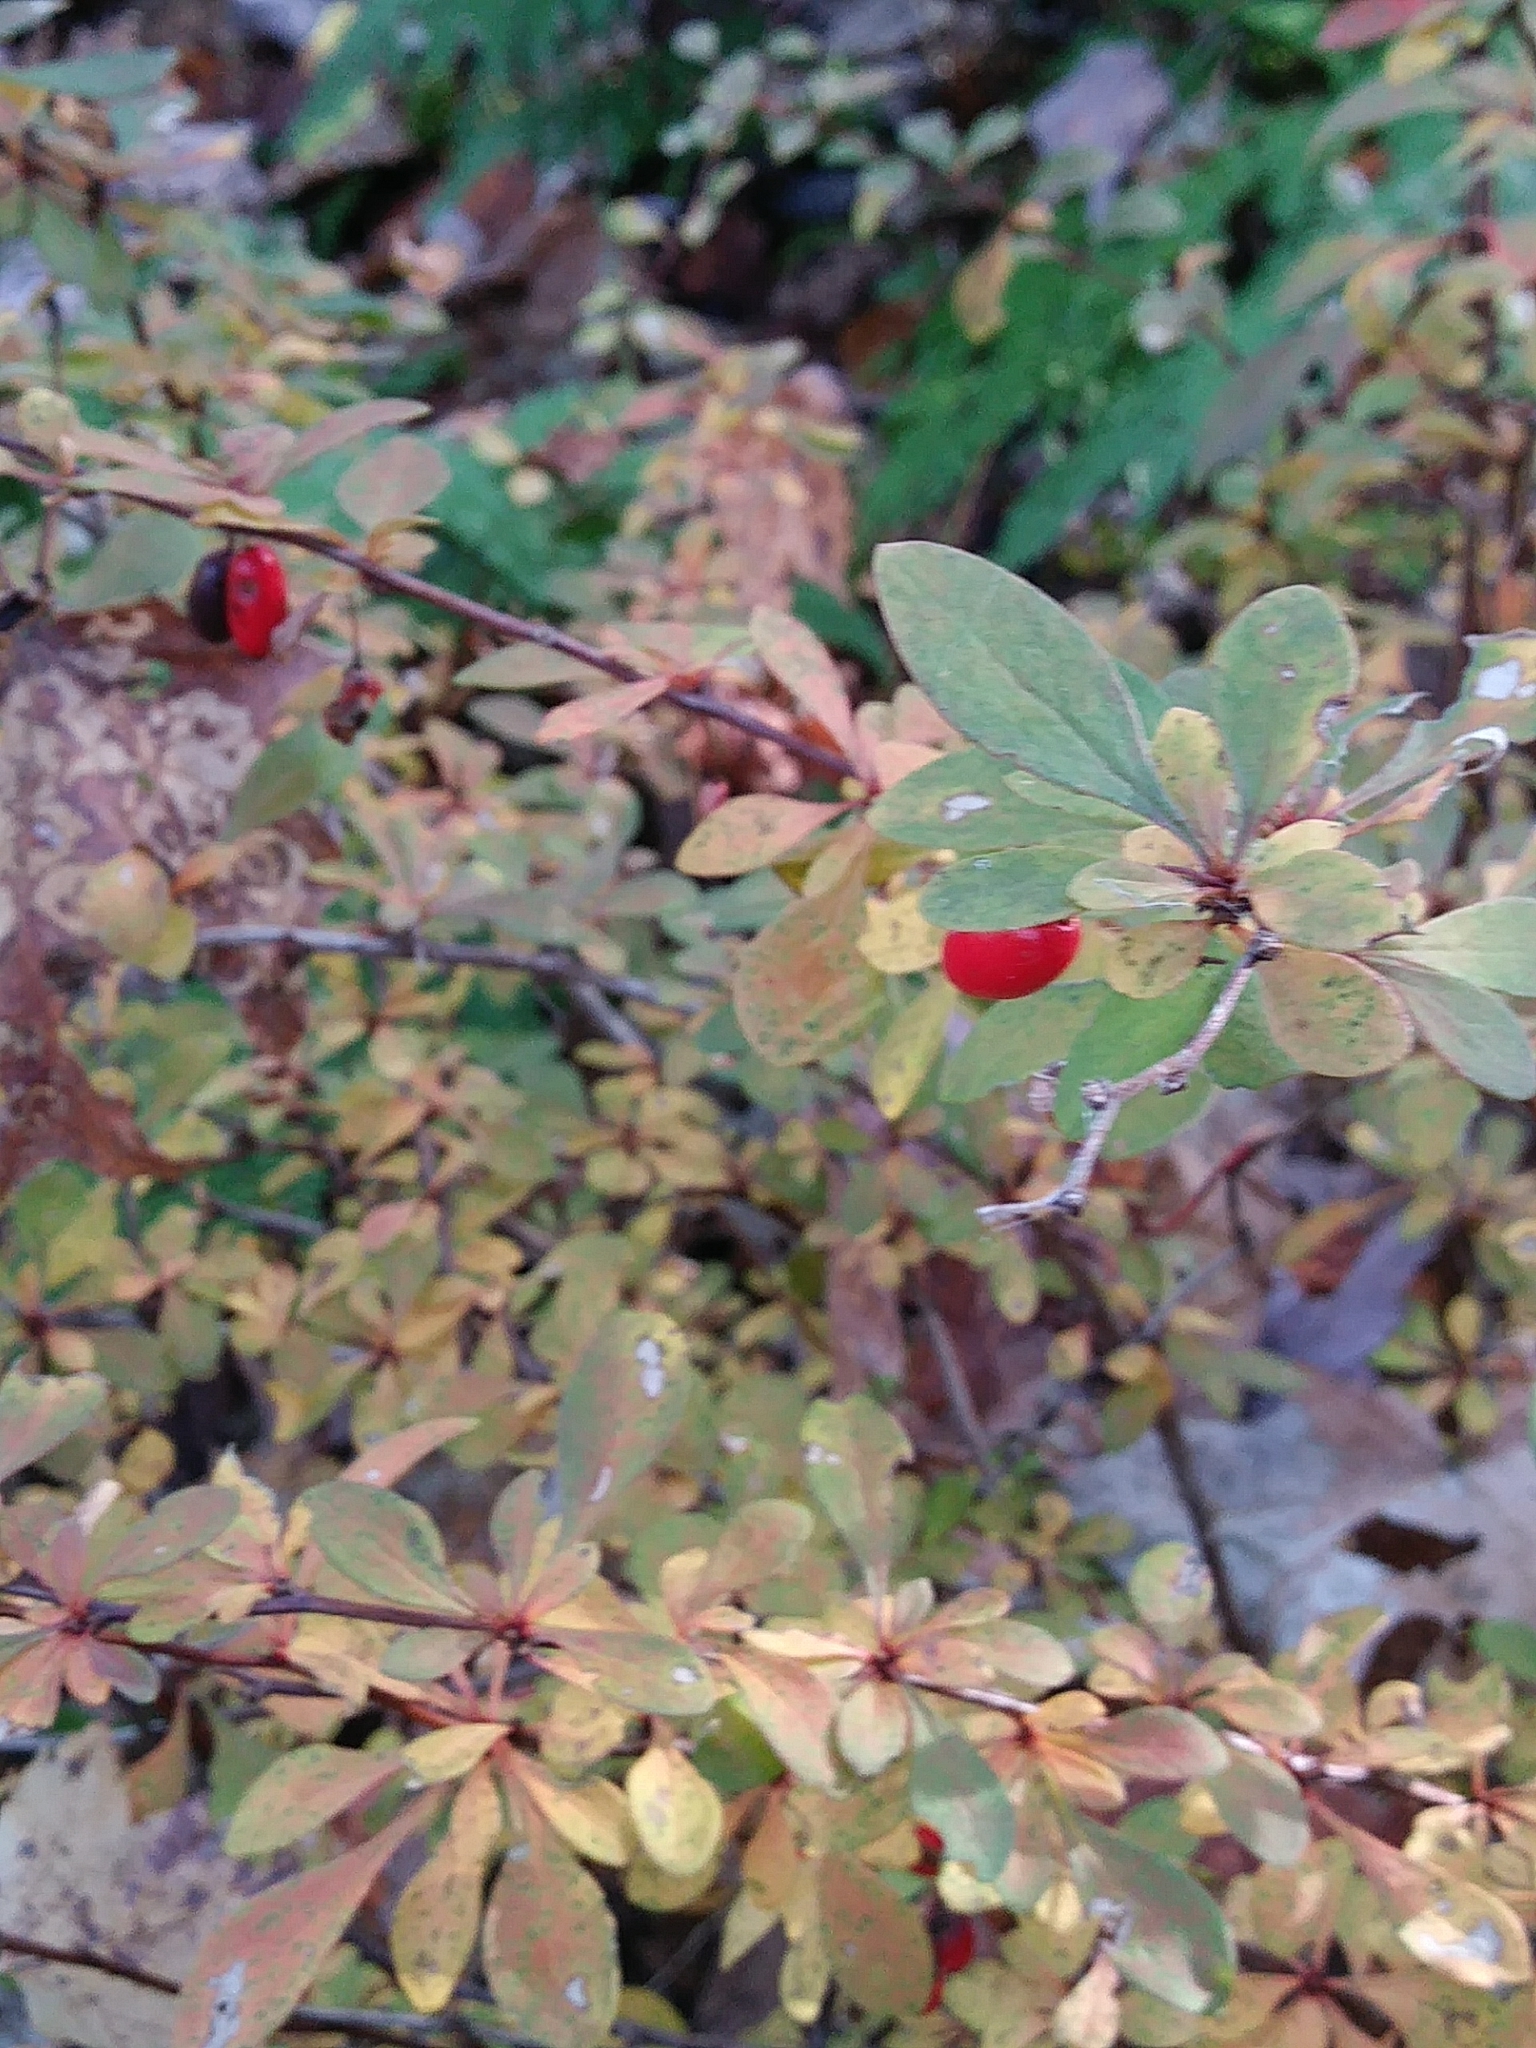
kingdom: Plantae
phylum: Tracheophyta
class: Magnoliopsida
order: Ranunculales
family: Berberidaceae
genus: Berberis
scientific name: Berberis thunbergii
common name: Japanese barberry
